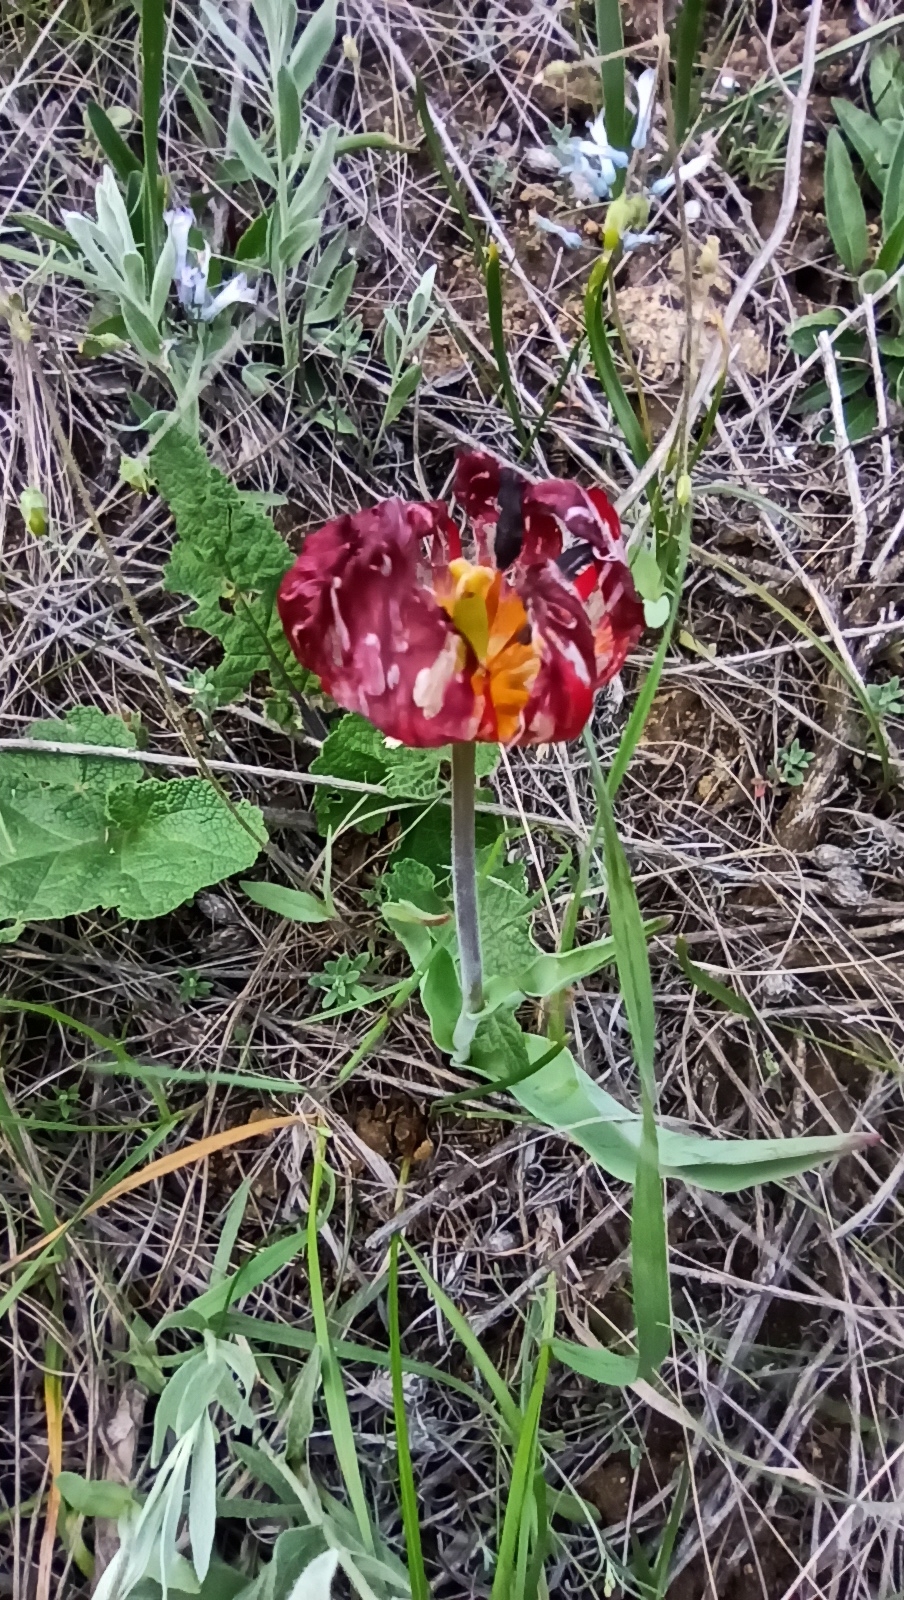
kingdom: Plantae
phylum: Tracheophyta
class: Liliopsida
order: Liliales
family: Liliaceae
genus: Tulipa
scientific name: Tulipa suaveolens
